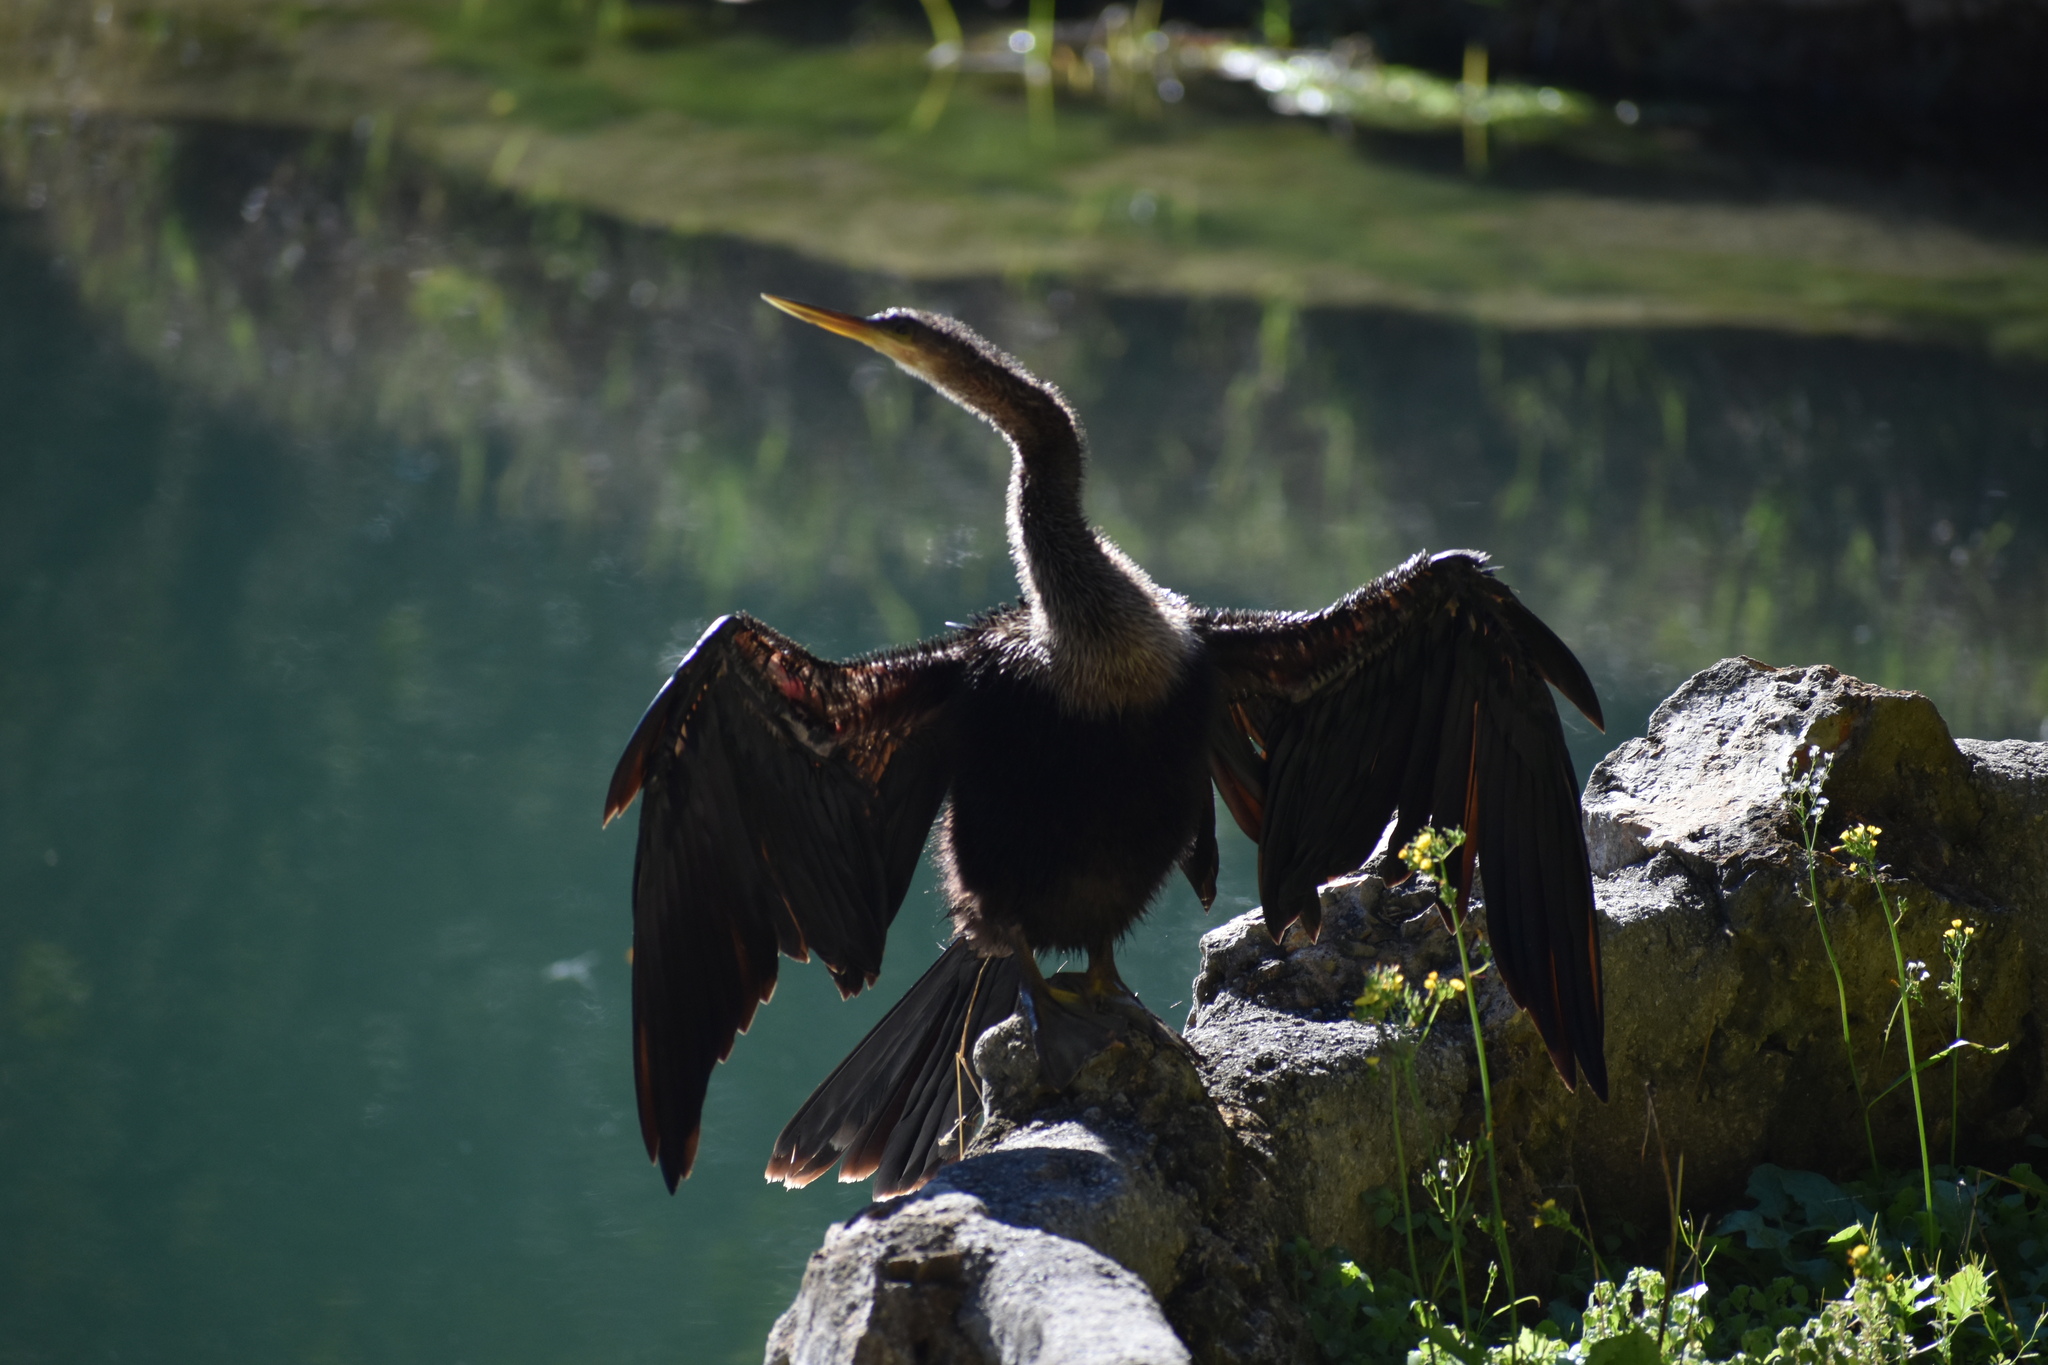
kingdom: Animalia
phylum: Chordata
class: Aves
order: Suliformes
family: Anhingidae
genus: Anhinga
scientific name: Anhinga anhinga
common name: Anhinga
